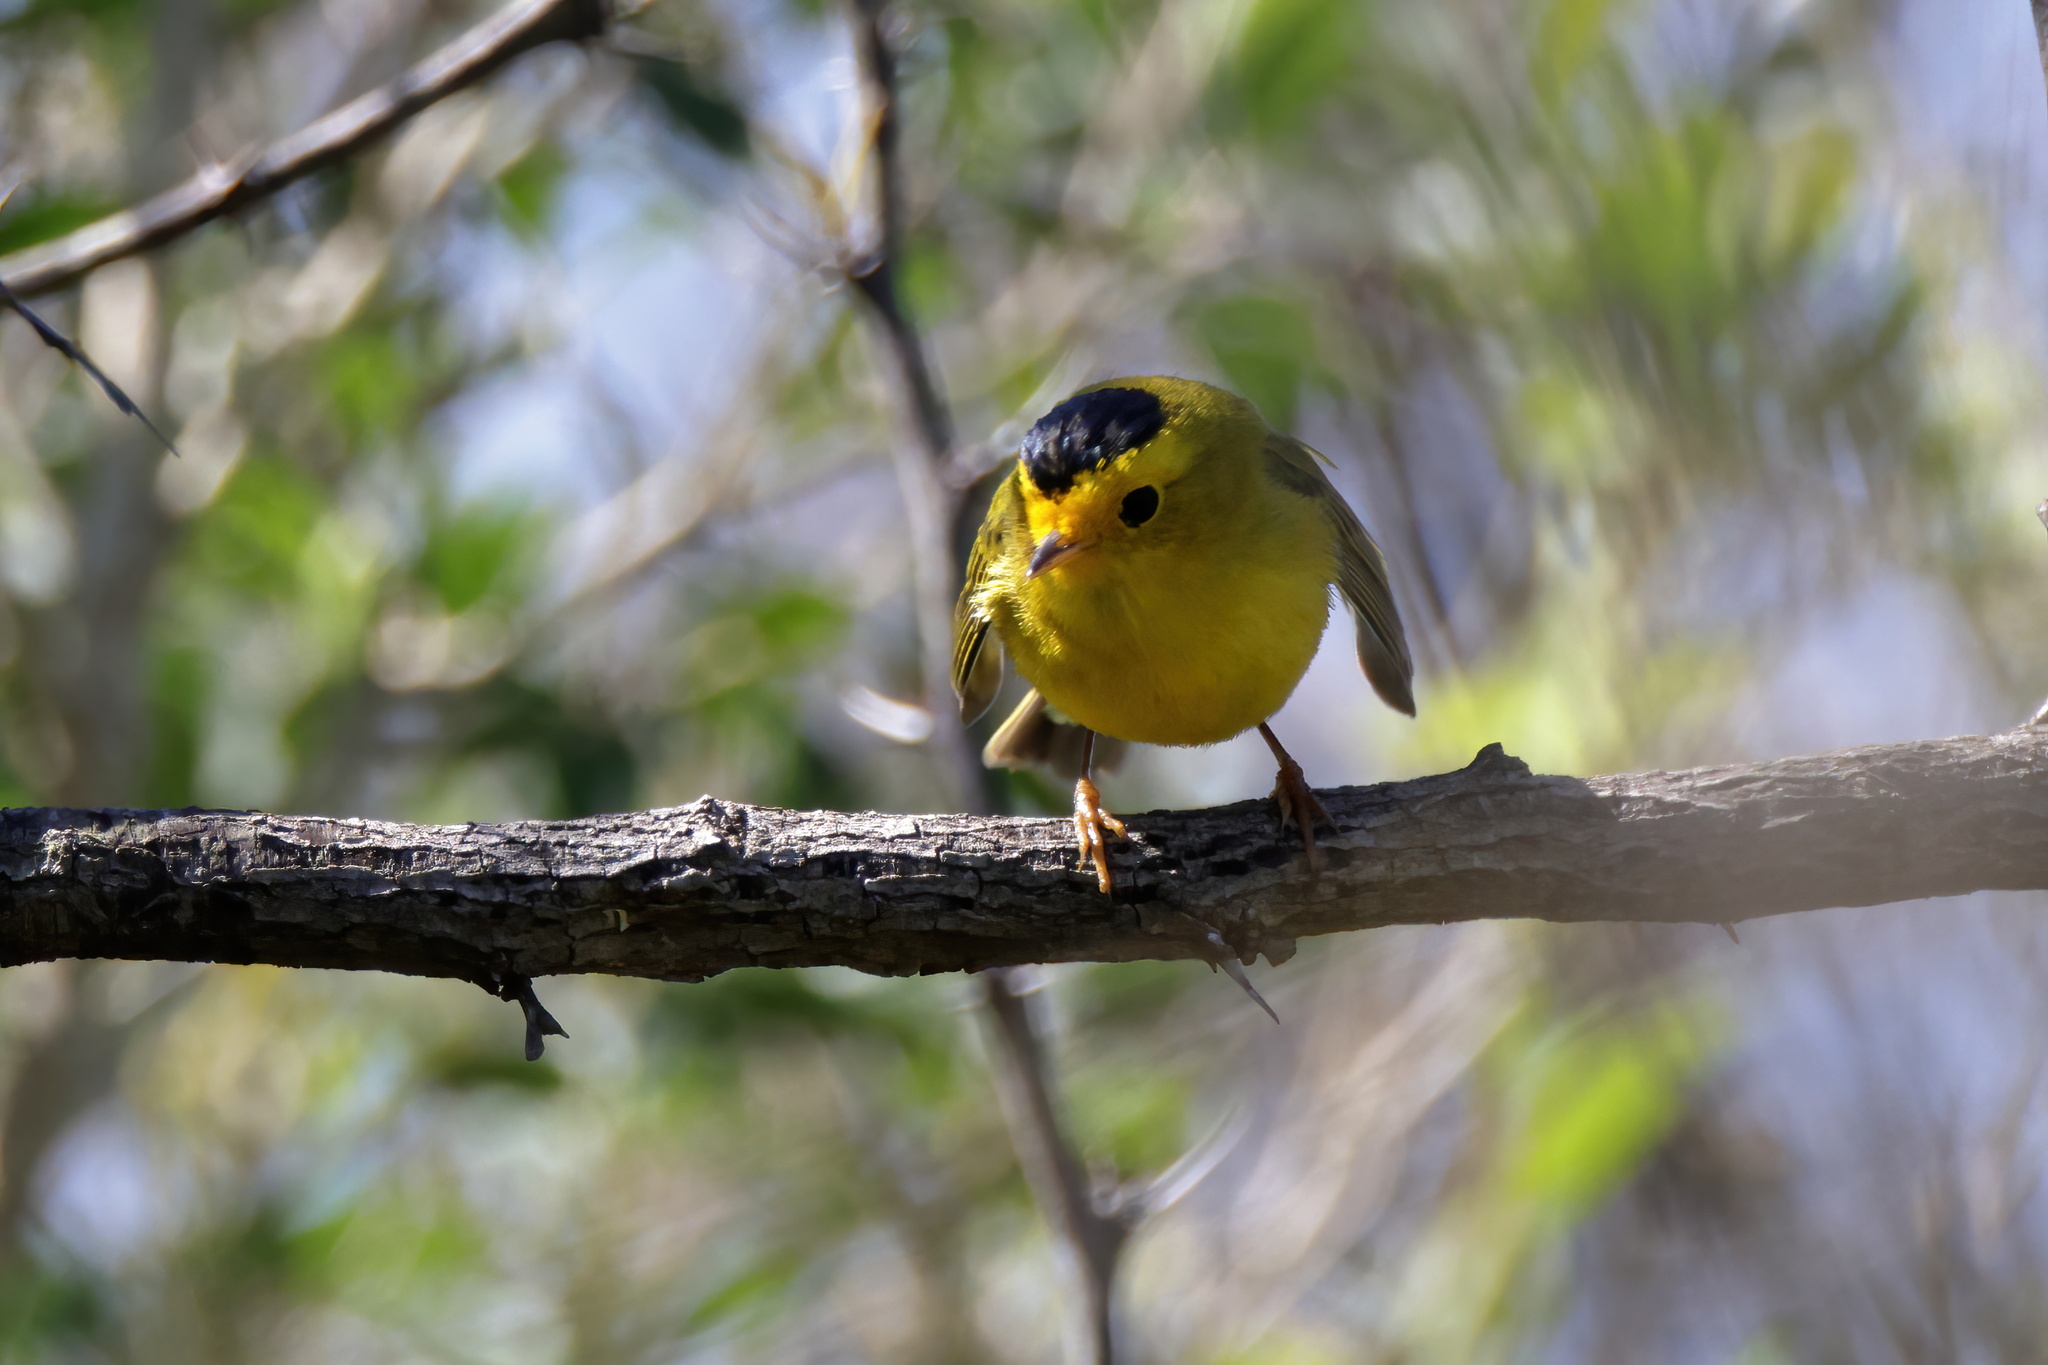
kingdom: Animalia
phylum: Chordata
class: Aves
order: Passeriformes
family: Parulidae
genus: Cardellina
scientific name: Cardellina pusilla
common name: Wilson's warbler
